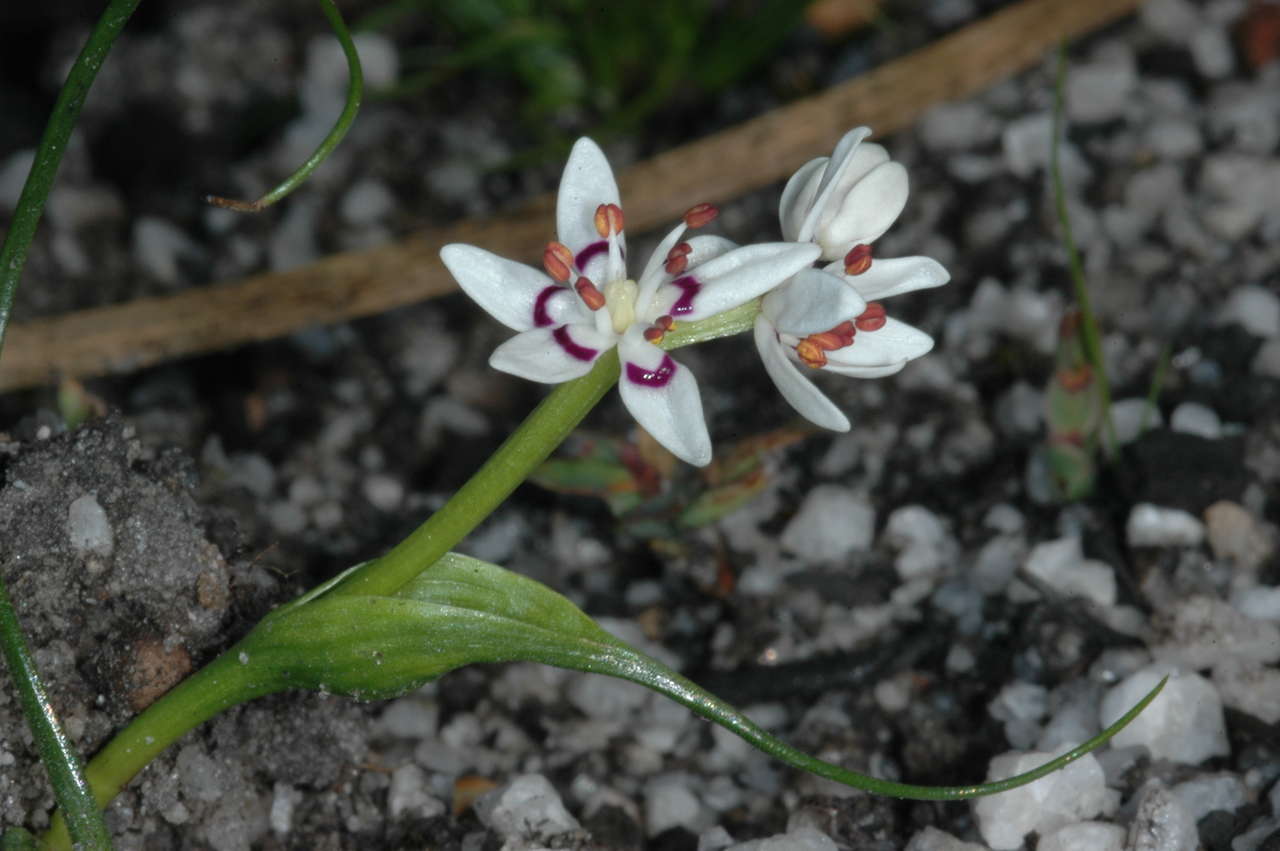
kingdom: Plantae
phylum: Tracheophyta
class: Liliopsida
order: Liliales
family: Colchicaceae
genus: Wurmbea
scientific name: Wurmbea dioica
